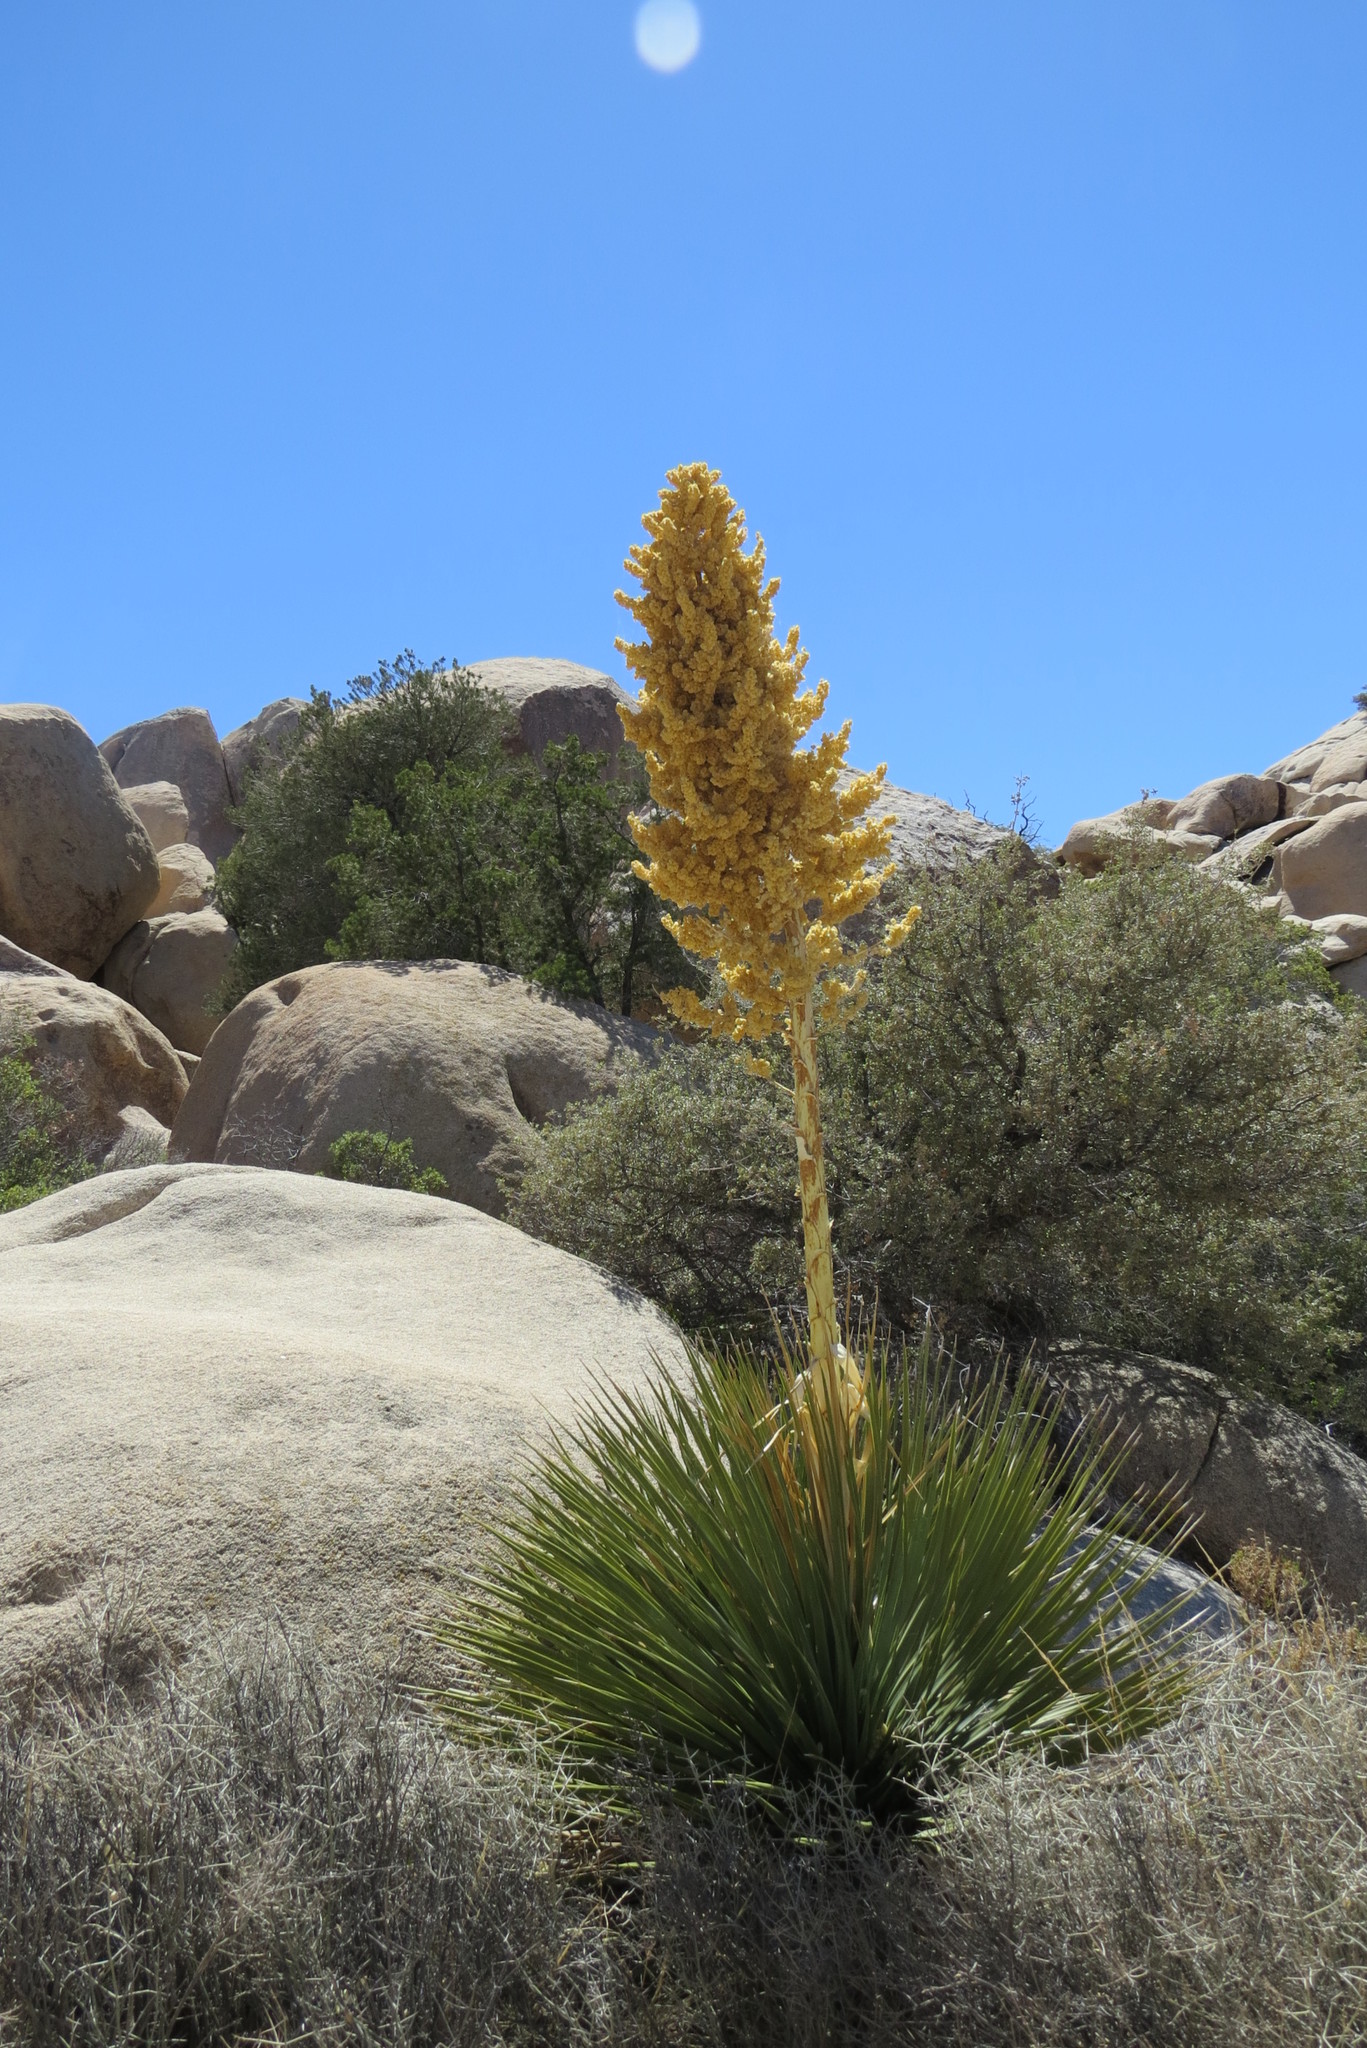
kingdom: Plantae
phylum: Tracheophyta
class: Liliopsida
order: Asparagales
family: Asparagaceae
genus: Nolina
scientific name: Nolina parryi
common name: Parry nolina
